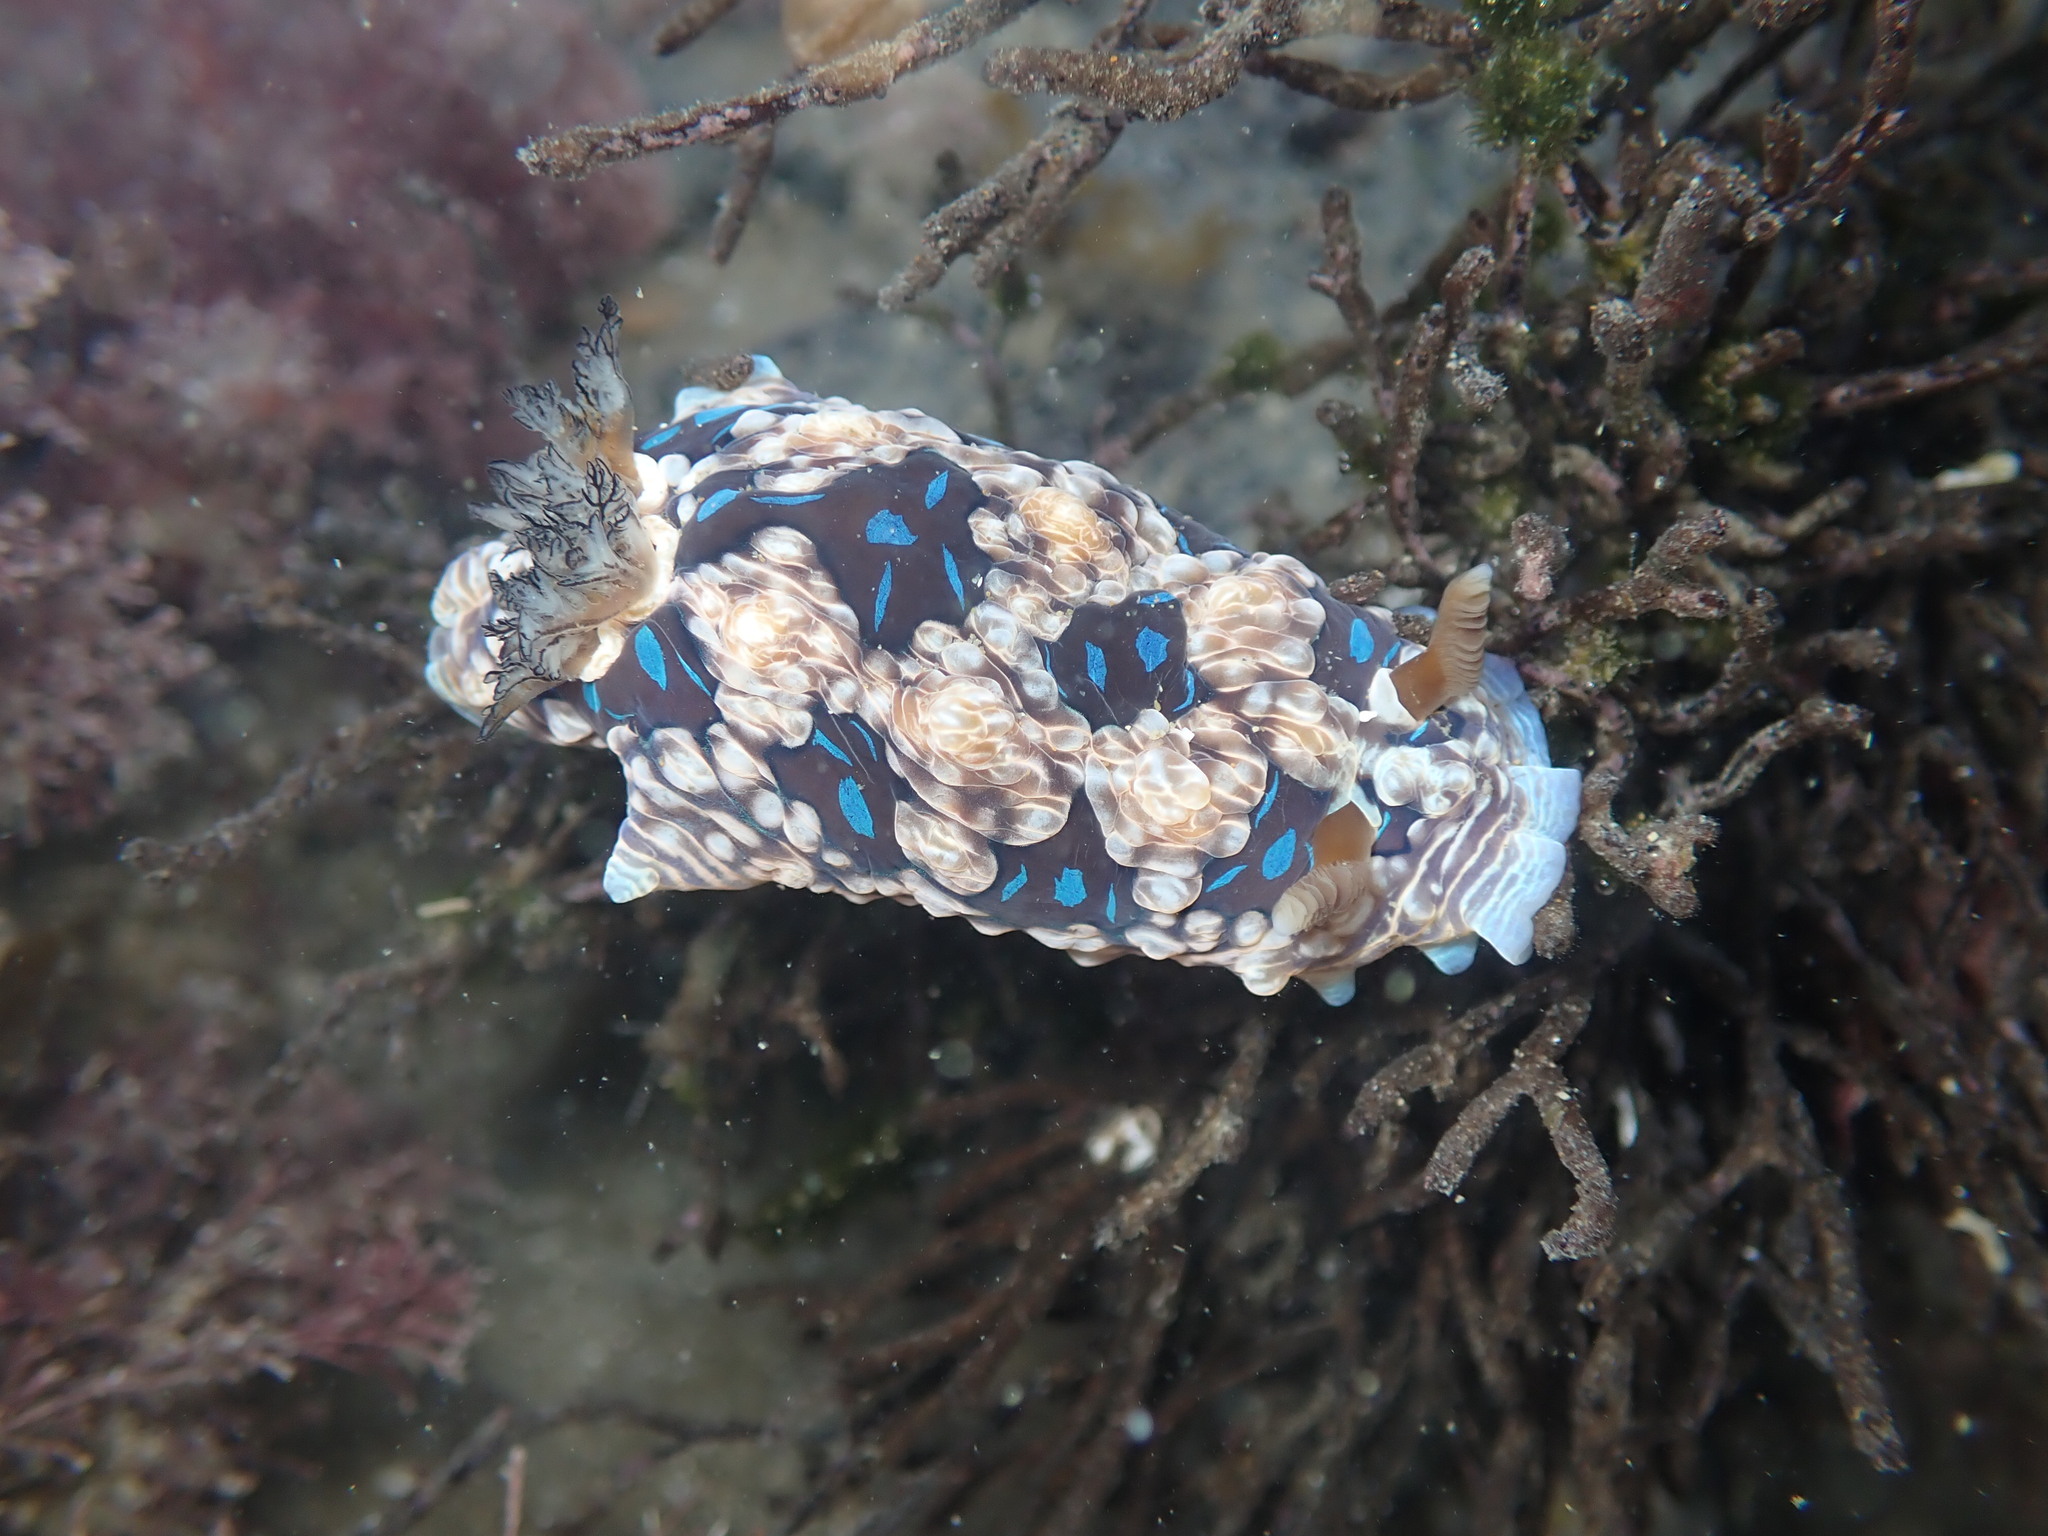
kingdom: Animalia
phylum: Mollusca
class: Gastropoda
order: Nudibranchia
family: Dendrodorididae
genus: Dendrodoris
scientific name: Dendrodoris krusensternii
